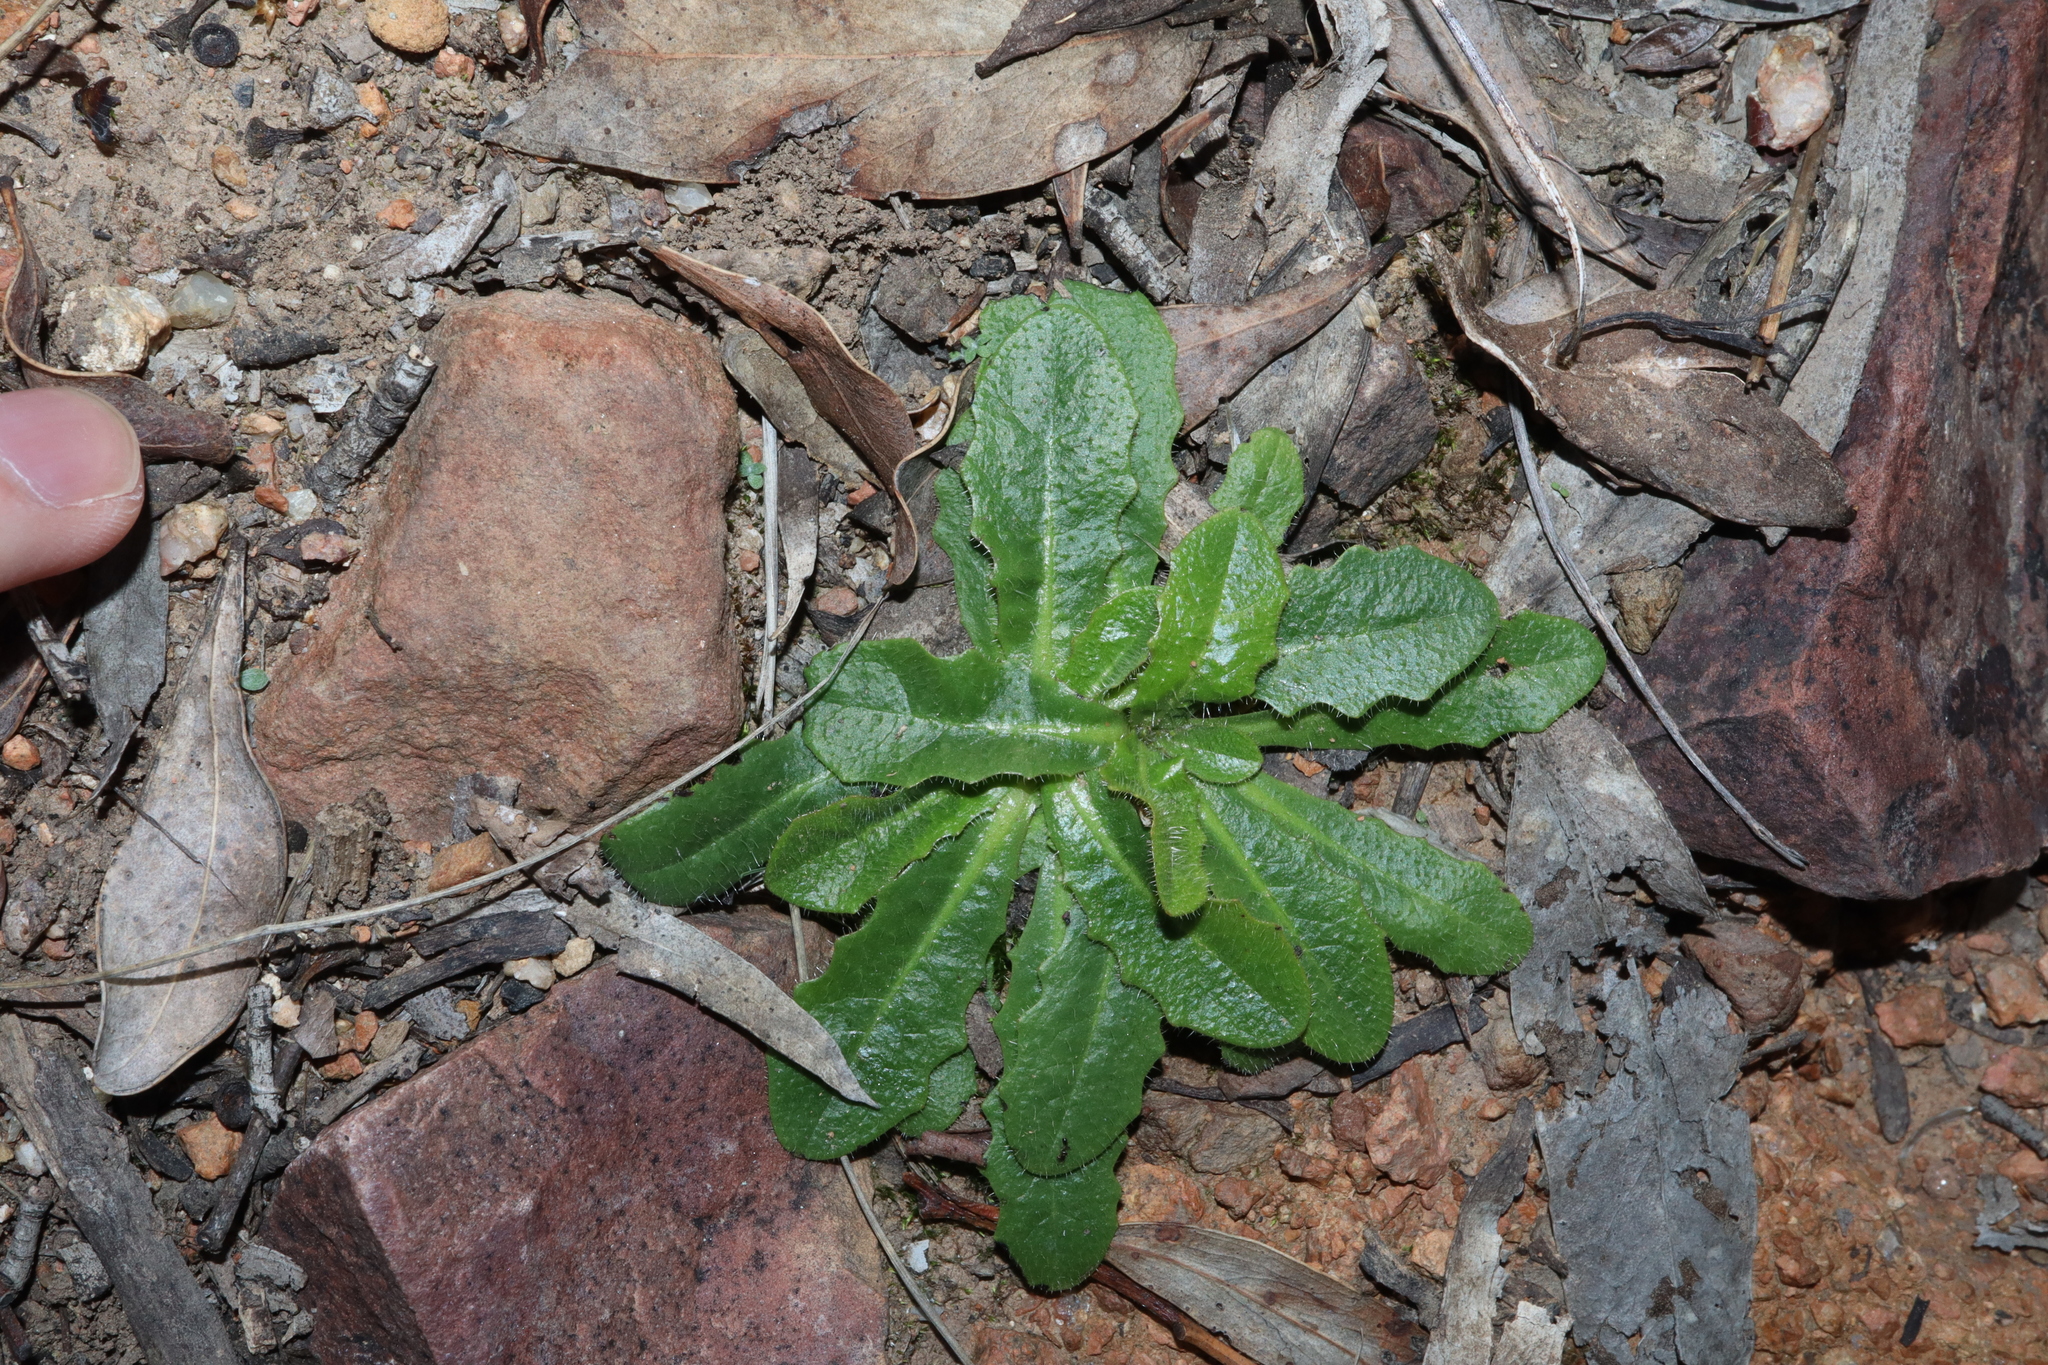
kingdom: Plantae
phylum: Tracheophyta
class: Magnoliopsida
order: Asterales
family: Asteraceae
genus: Hypochaeris
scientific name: Hypochaeris radicata
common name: Flatweed
